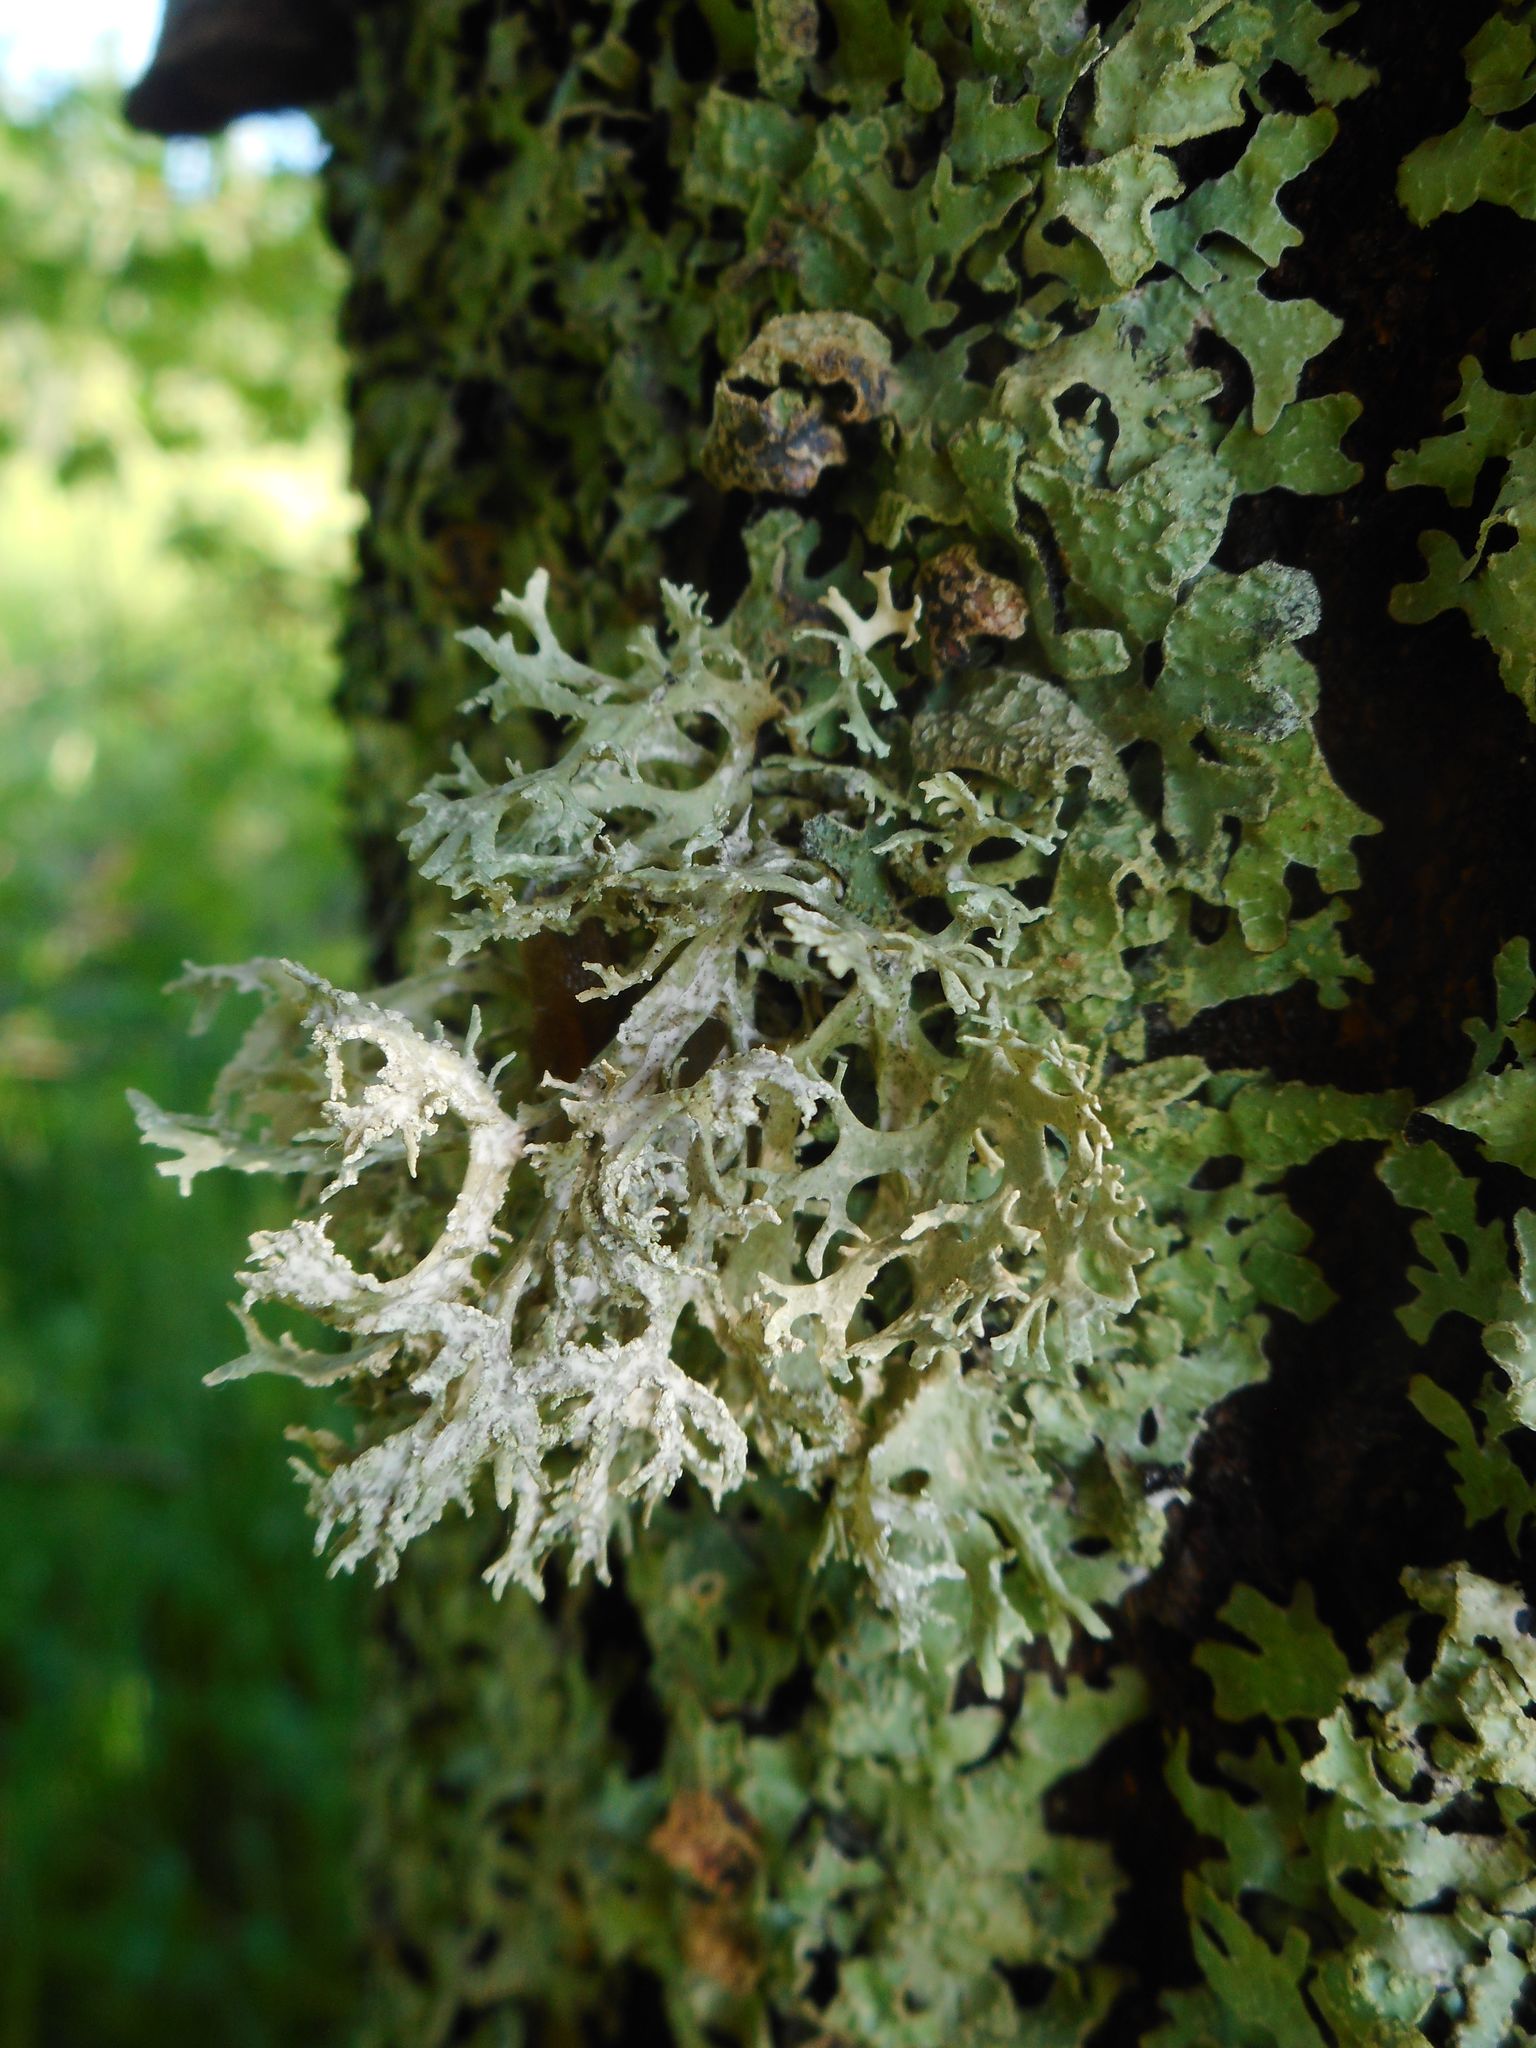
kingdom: Fungi
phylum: Ascomycota
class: Lecanoromycetes
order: Lecanorales
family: Parmeliaceae
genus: Evernia
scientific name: Evernia prunastri
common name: Oak moss
